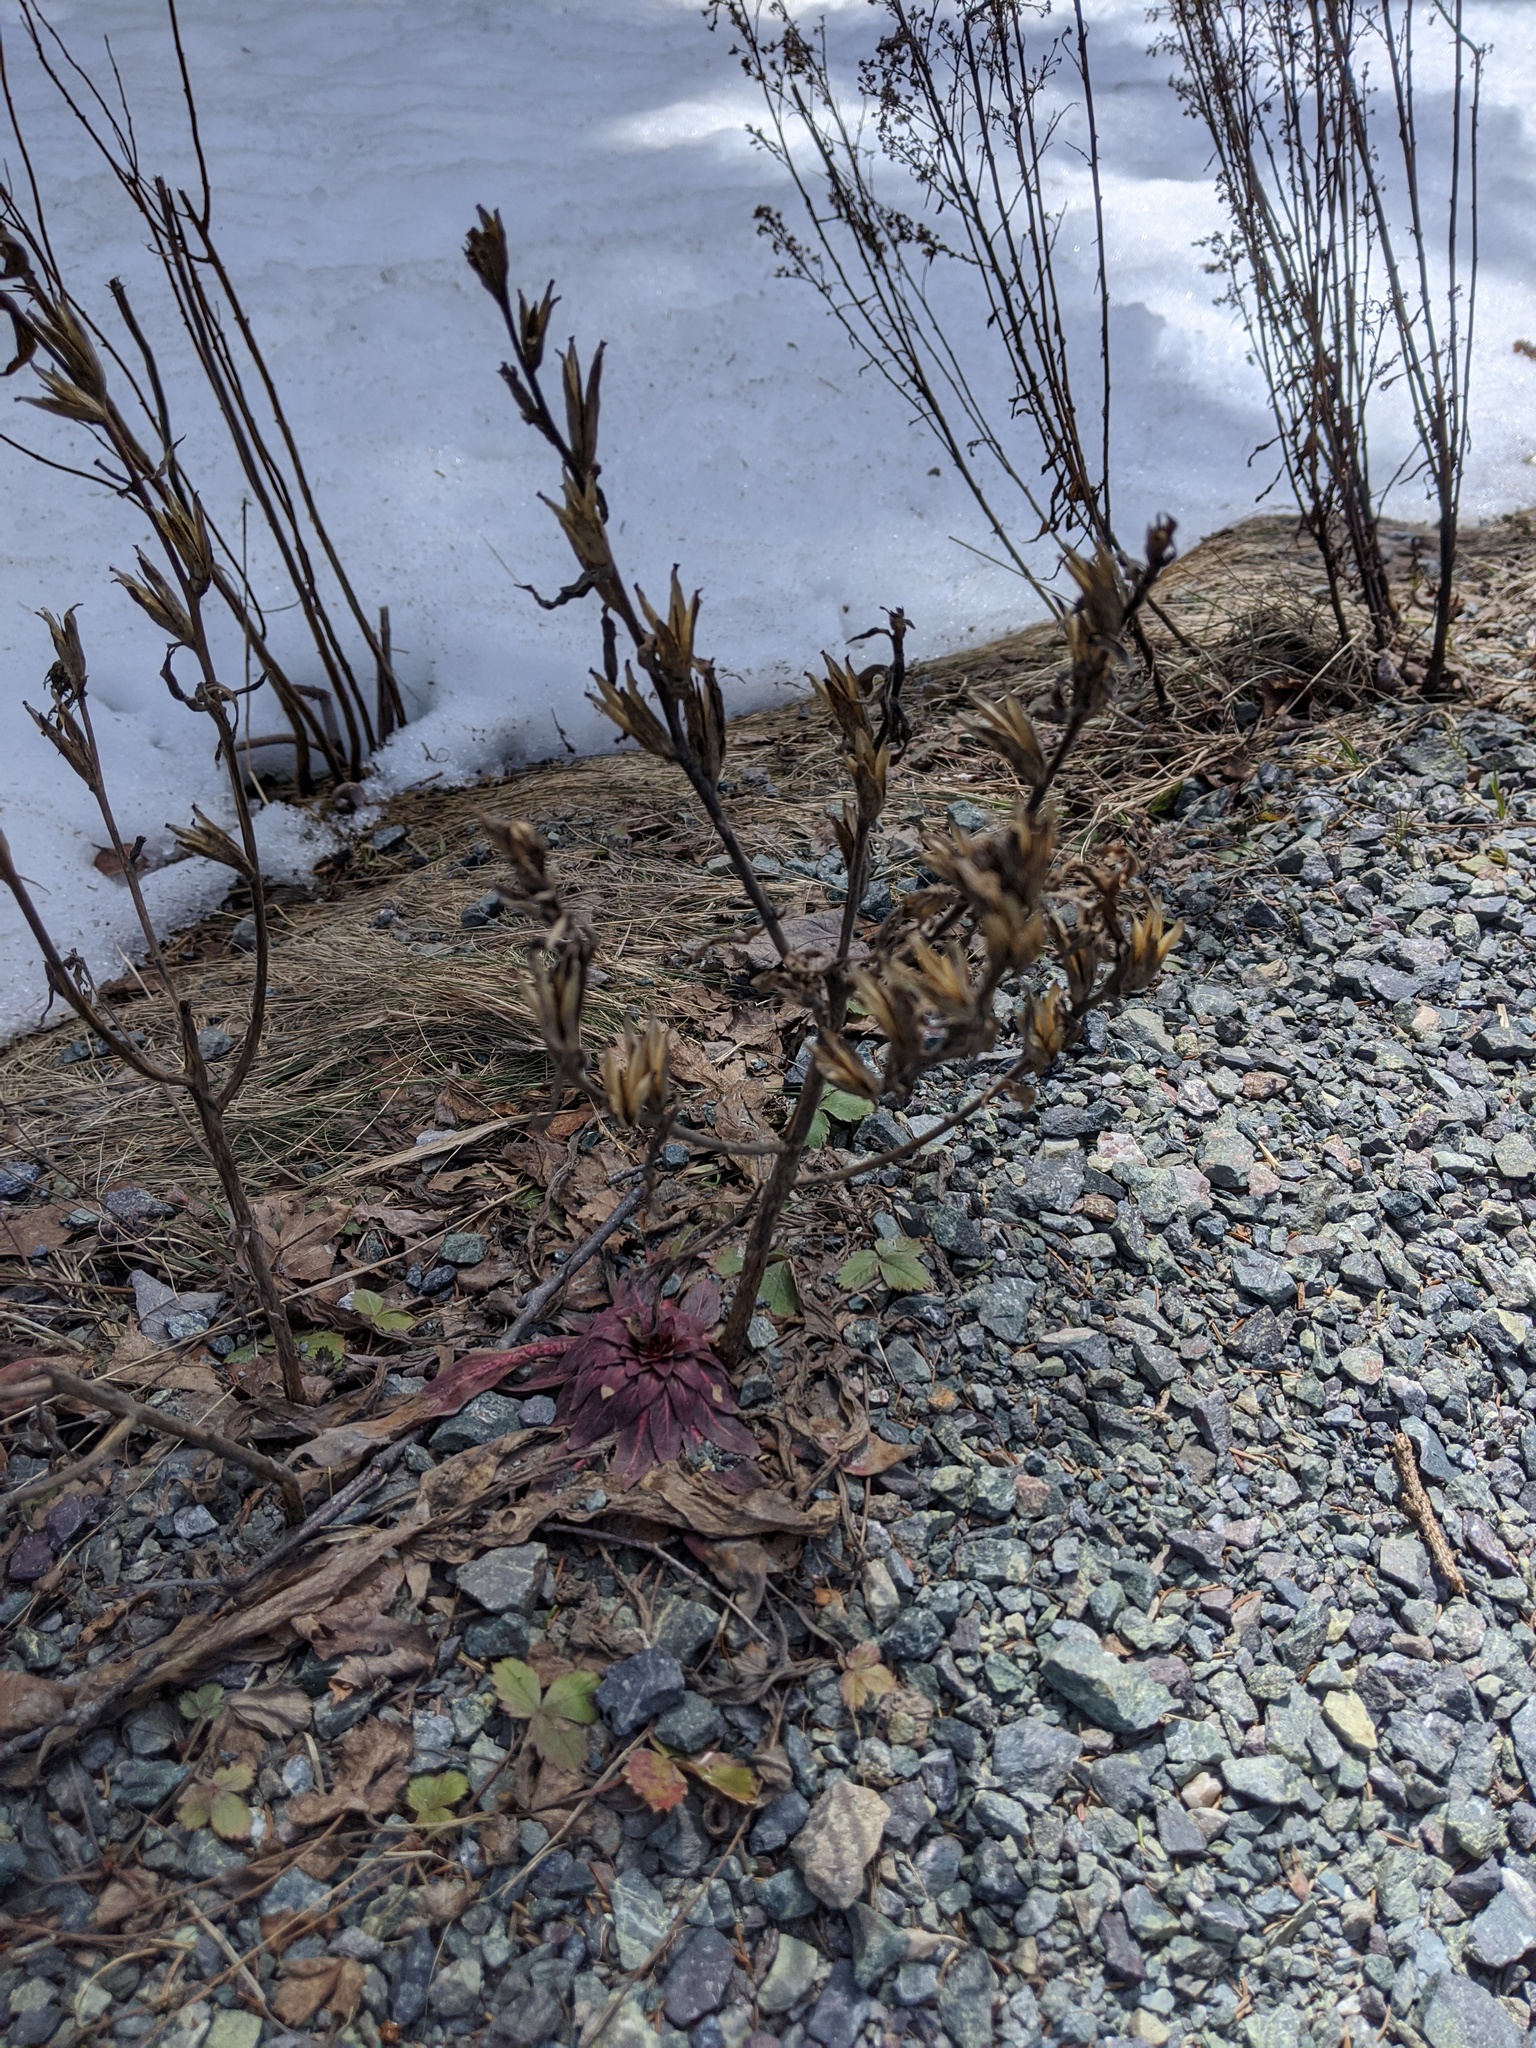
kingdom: Plantae
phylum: Tracheophyta
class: Magnoliopsida
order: Myrtales
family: Onagraceae
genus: Oenothera
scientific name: Oenothera biennis
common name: Common evening-primrose
